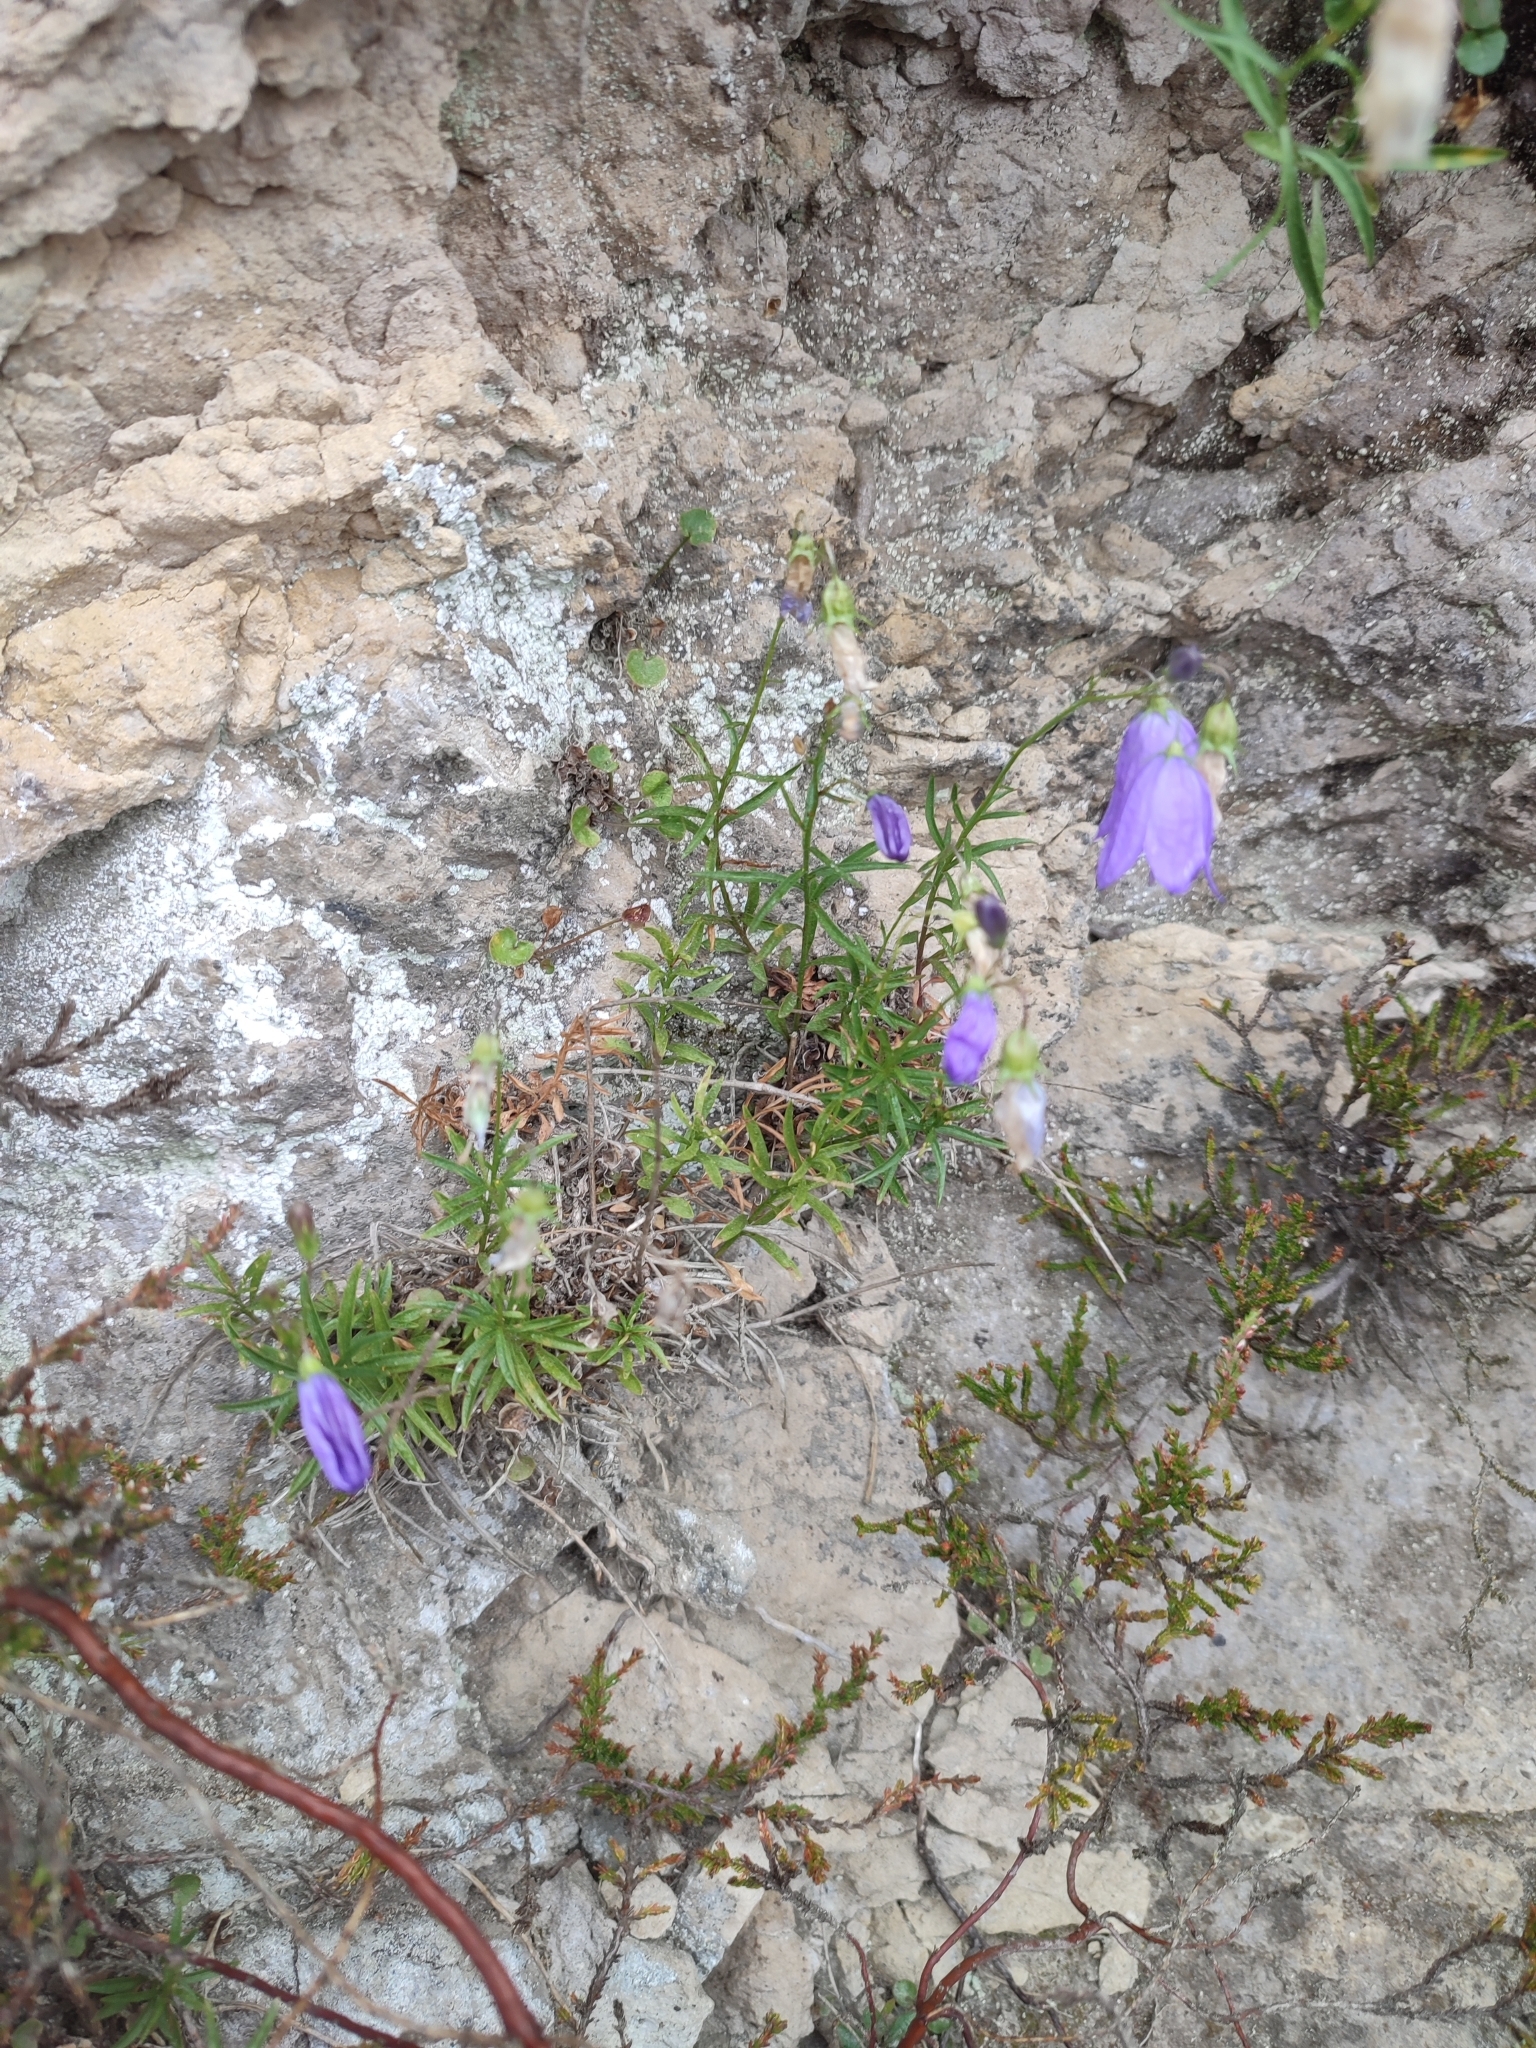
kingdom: Plantae
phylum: Tracheophyta
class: Magnoliopsida
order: Asterales
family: Campanulaceae
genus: Campanula
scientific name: Campanula rotundifolia
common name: Harebell
